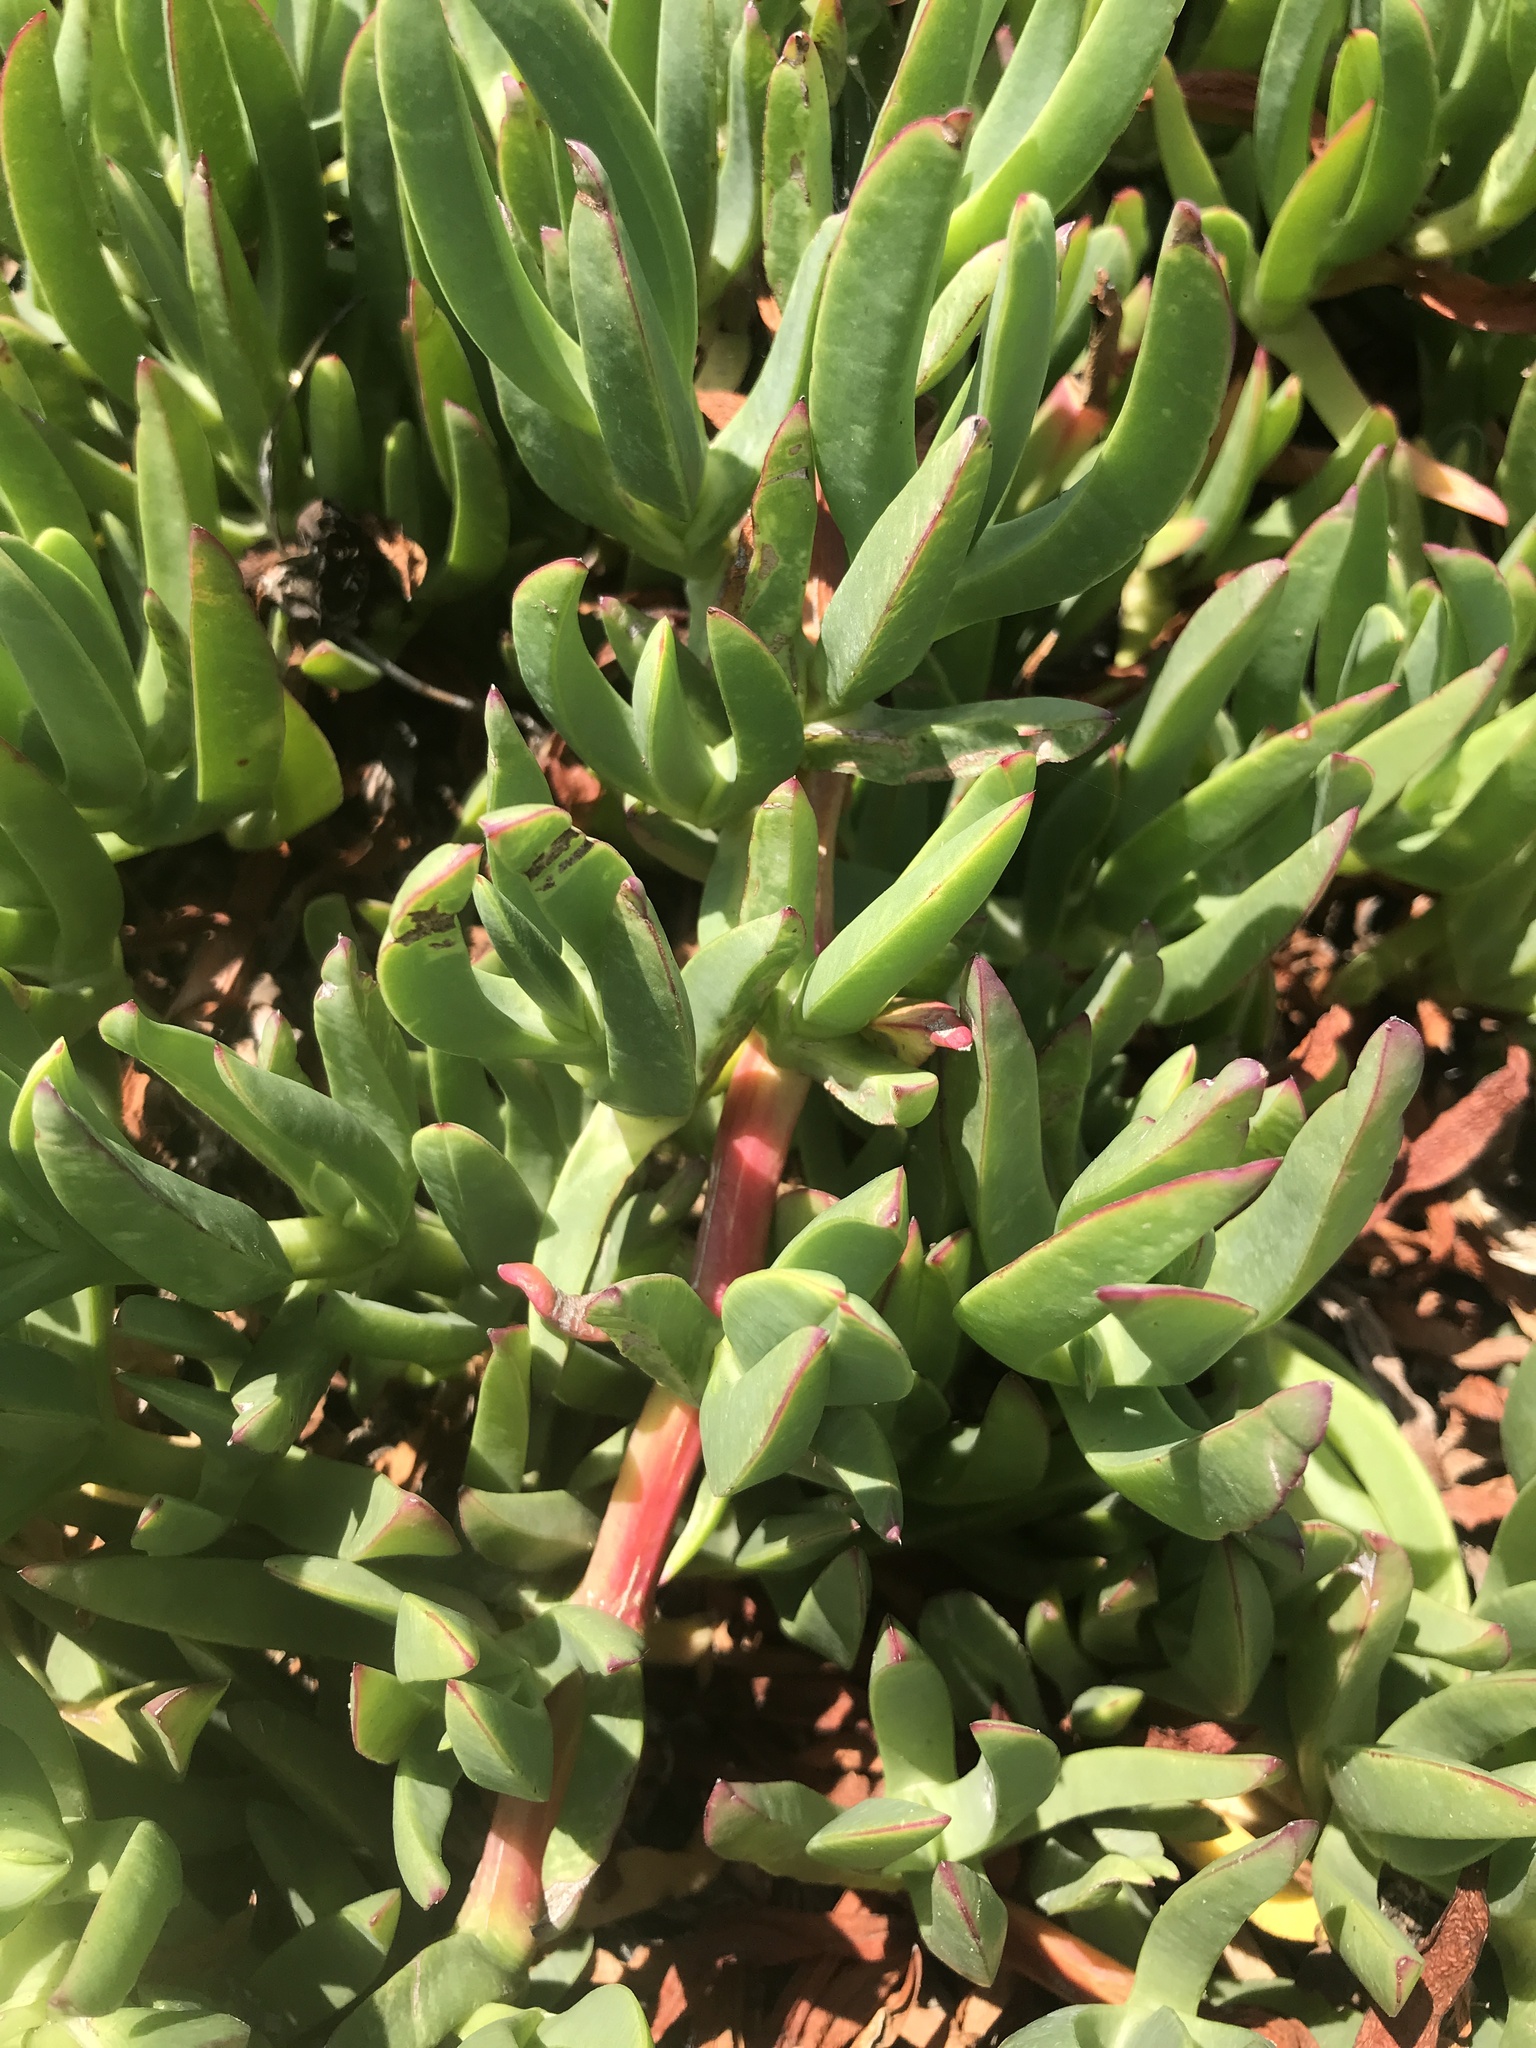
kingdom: Plantae
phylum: Tracheophyta
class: Magnoliopsida
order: Caryophyllales
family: Aizoaceae
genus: Carpobrotus
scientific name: Carpobrotus chilensis
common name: Sea fig
